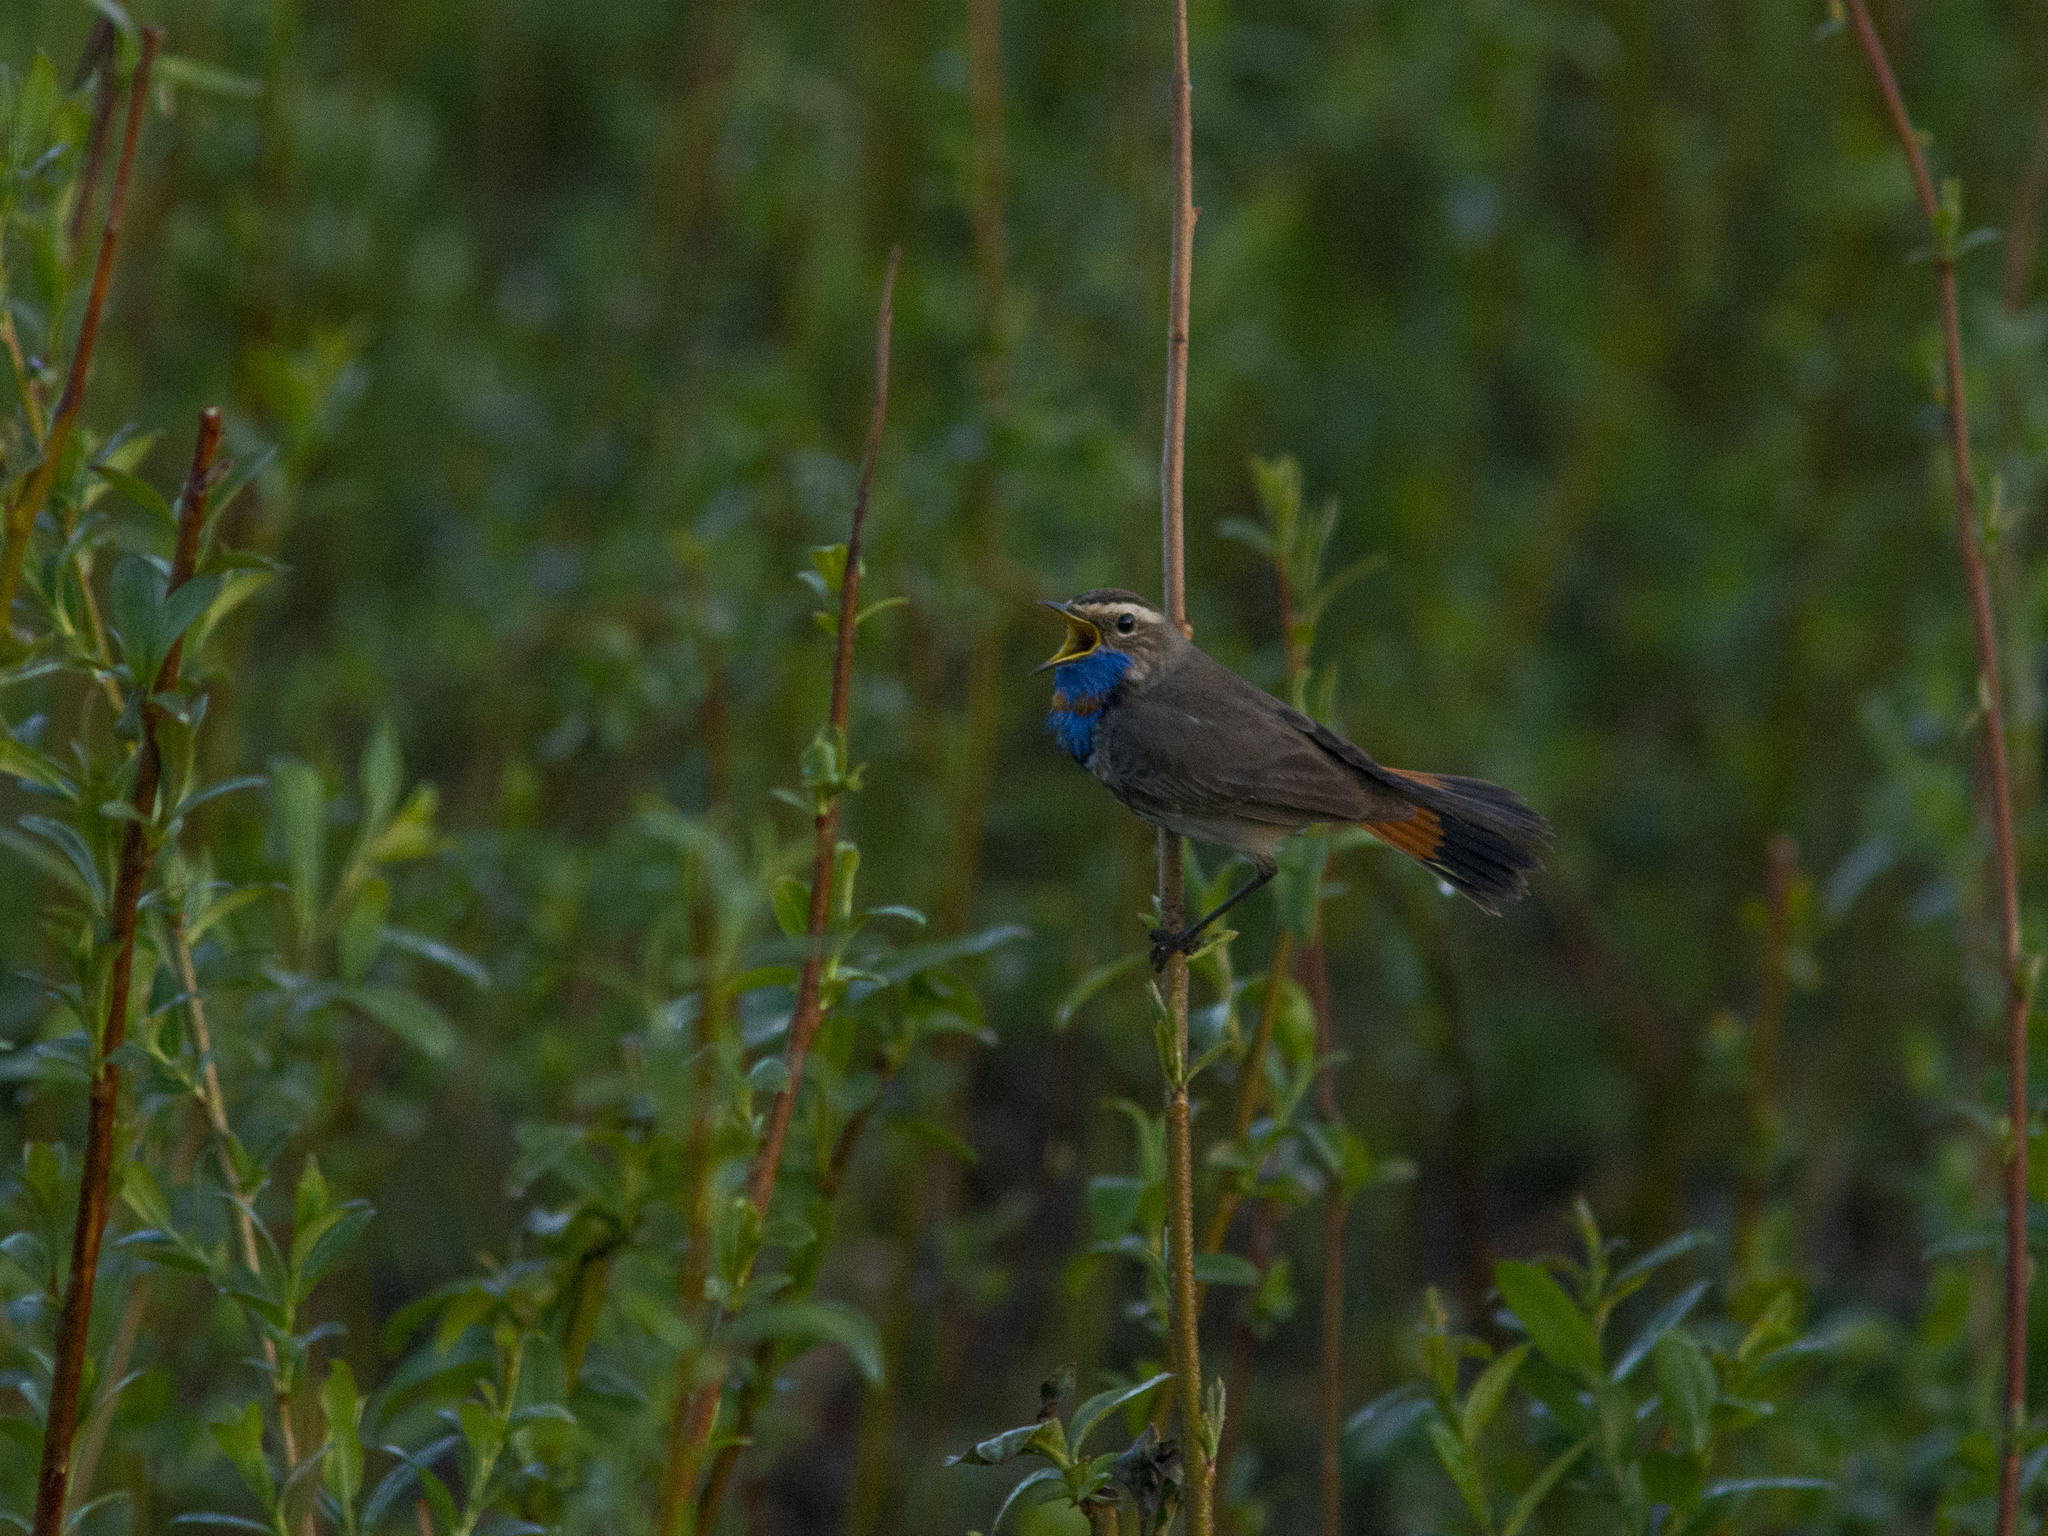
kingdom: Animalia
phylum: Chordata
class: Aves
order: Passeriformes
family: Muscicapidae
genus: Luscinia
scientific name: Luscinia svecica
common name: Bluethroat
